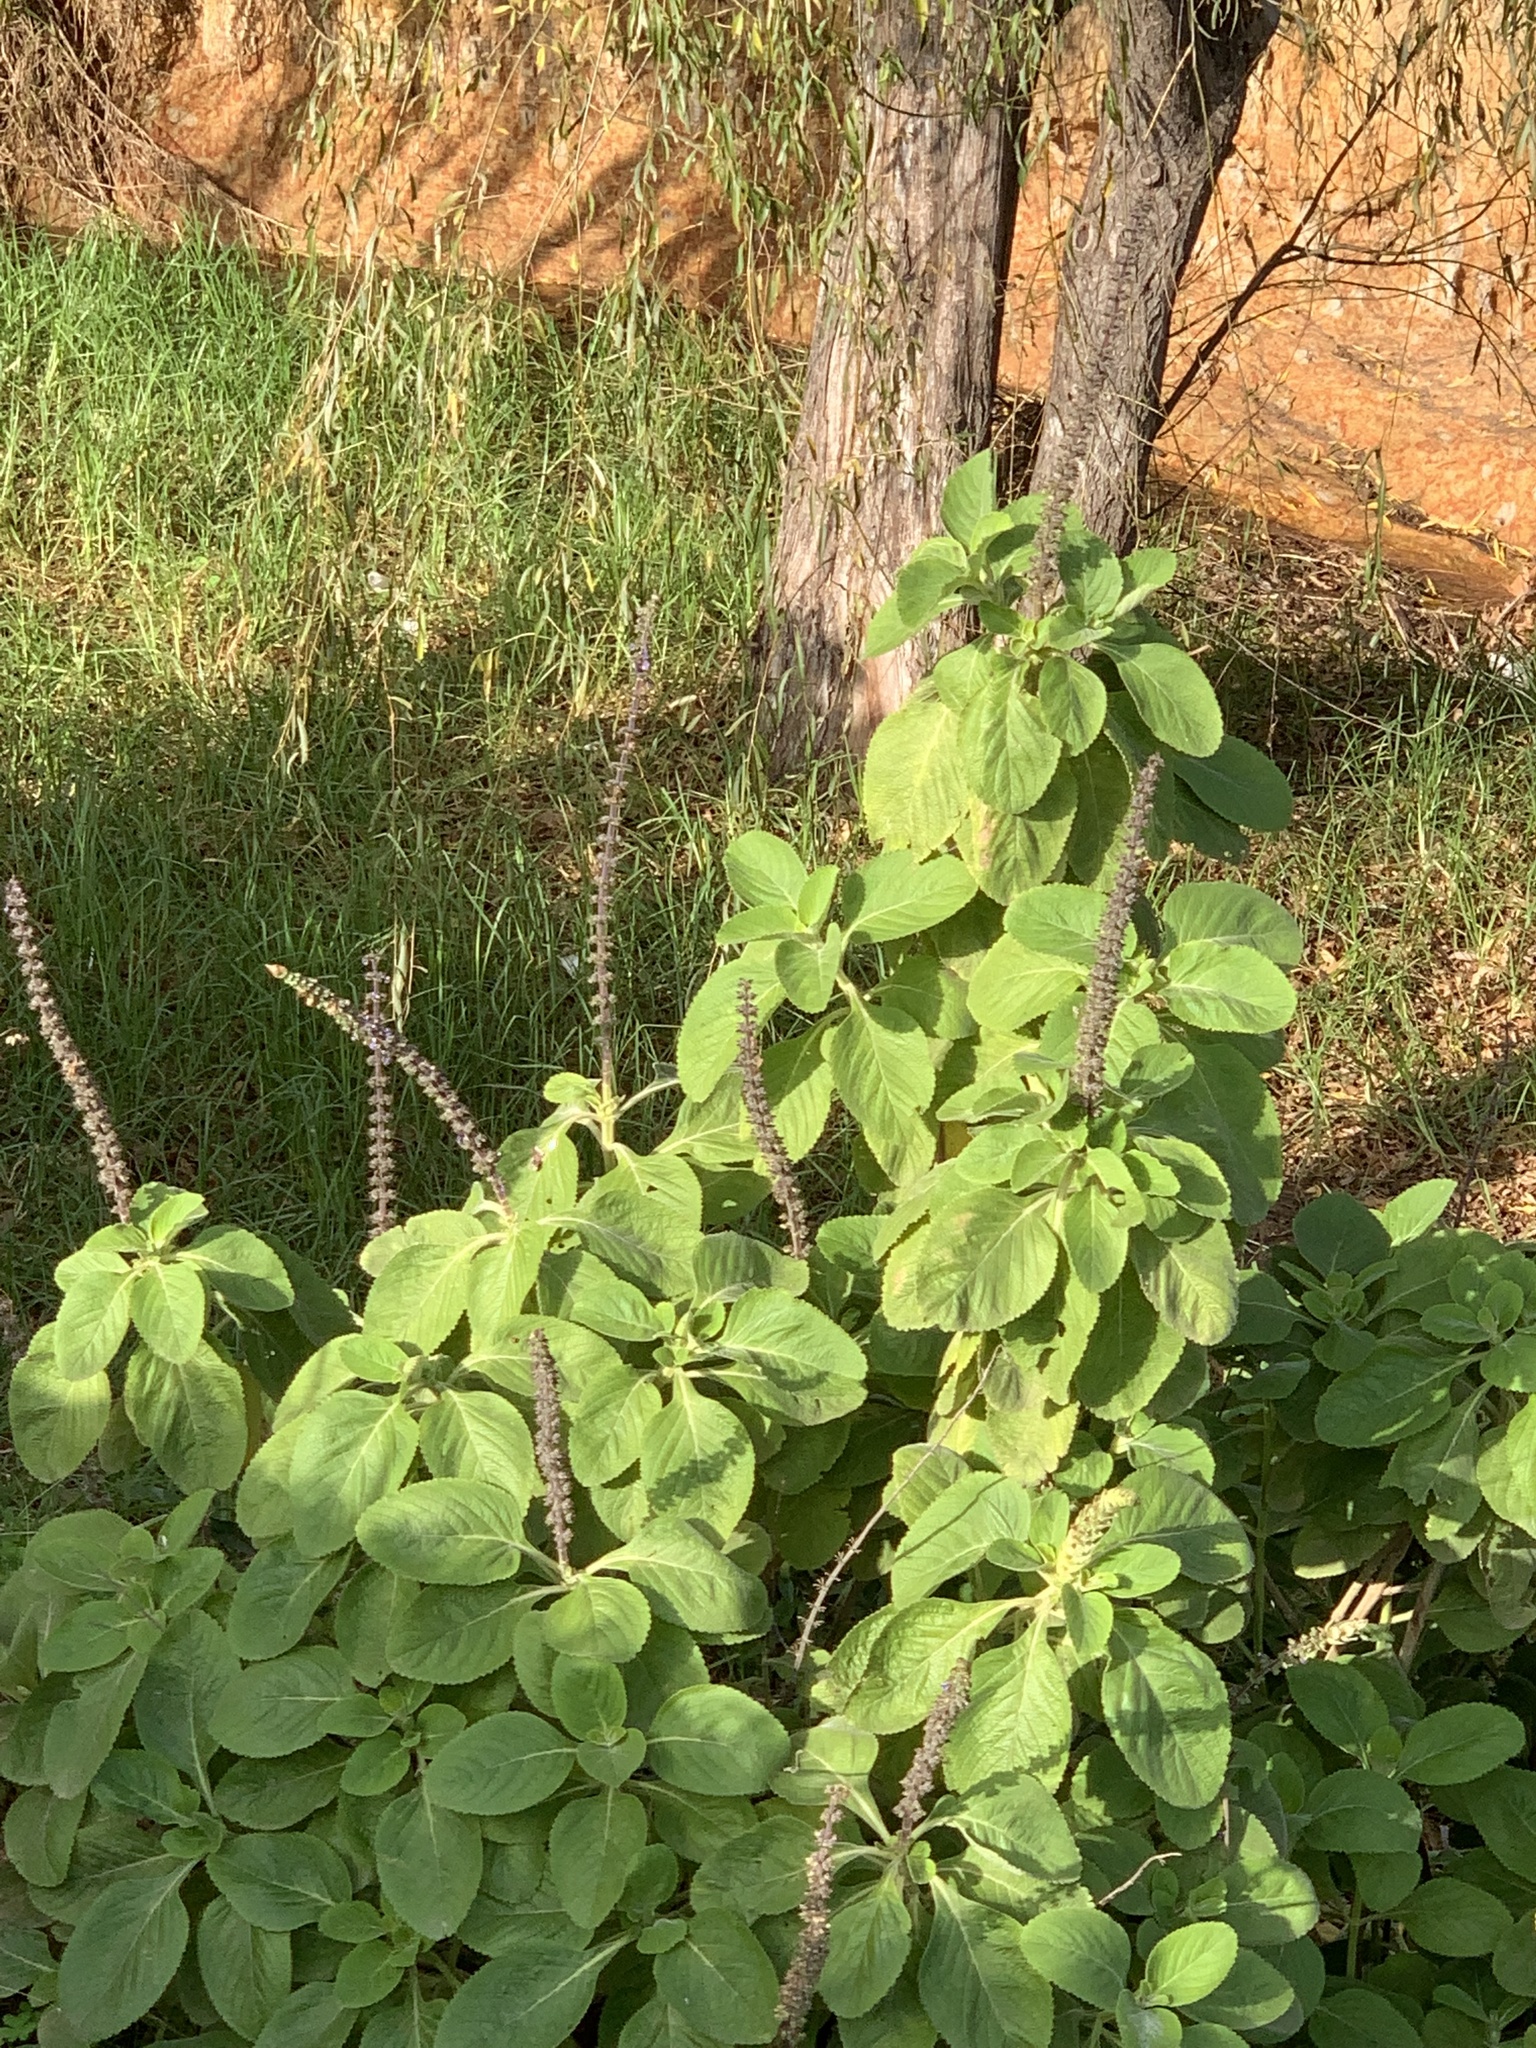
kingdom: Plantae
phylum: Tracheophyta
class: Magnoliopsida
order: Lamiales
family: Lamiaceae
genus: Coleus
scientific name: Coleus barbatus
